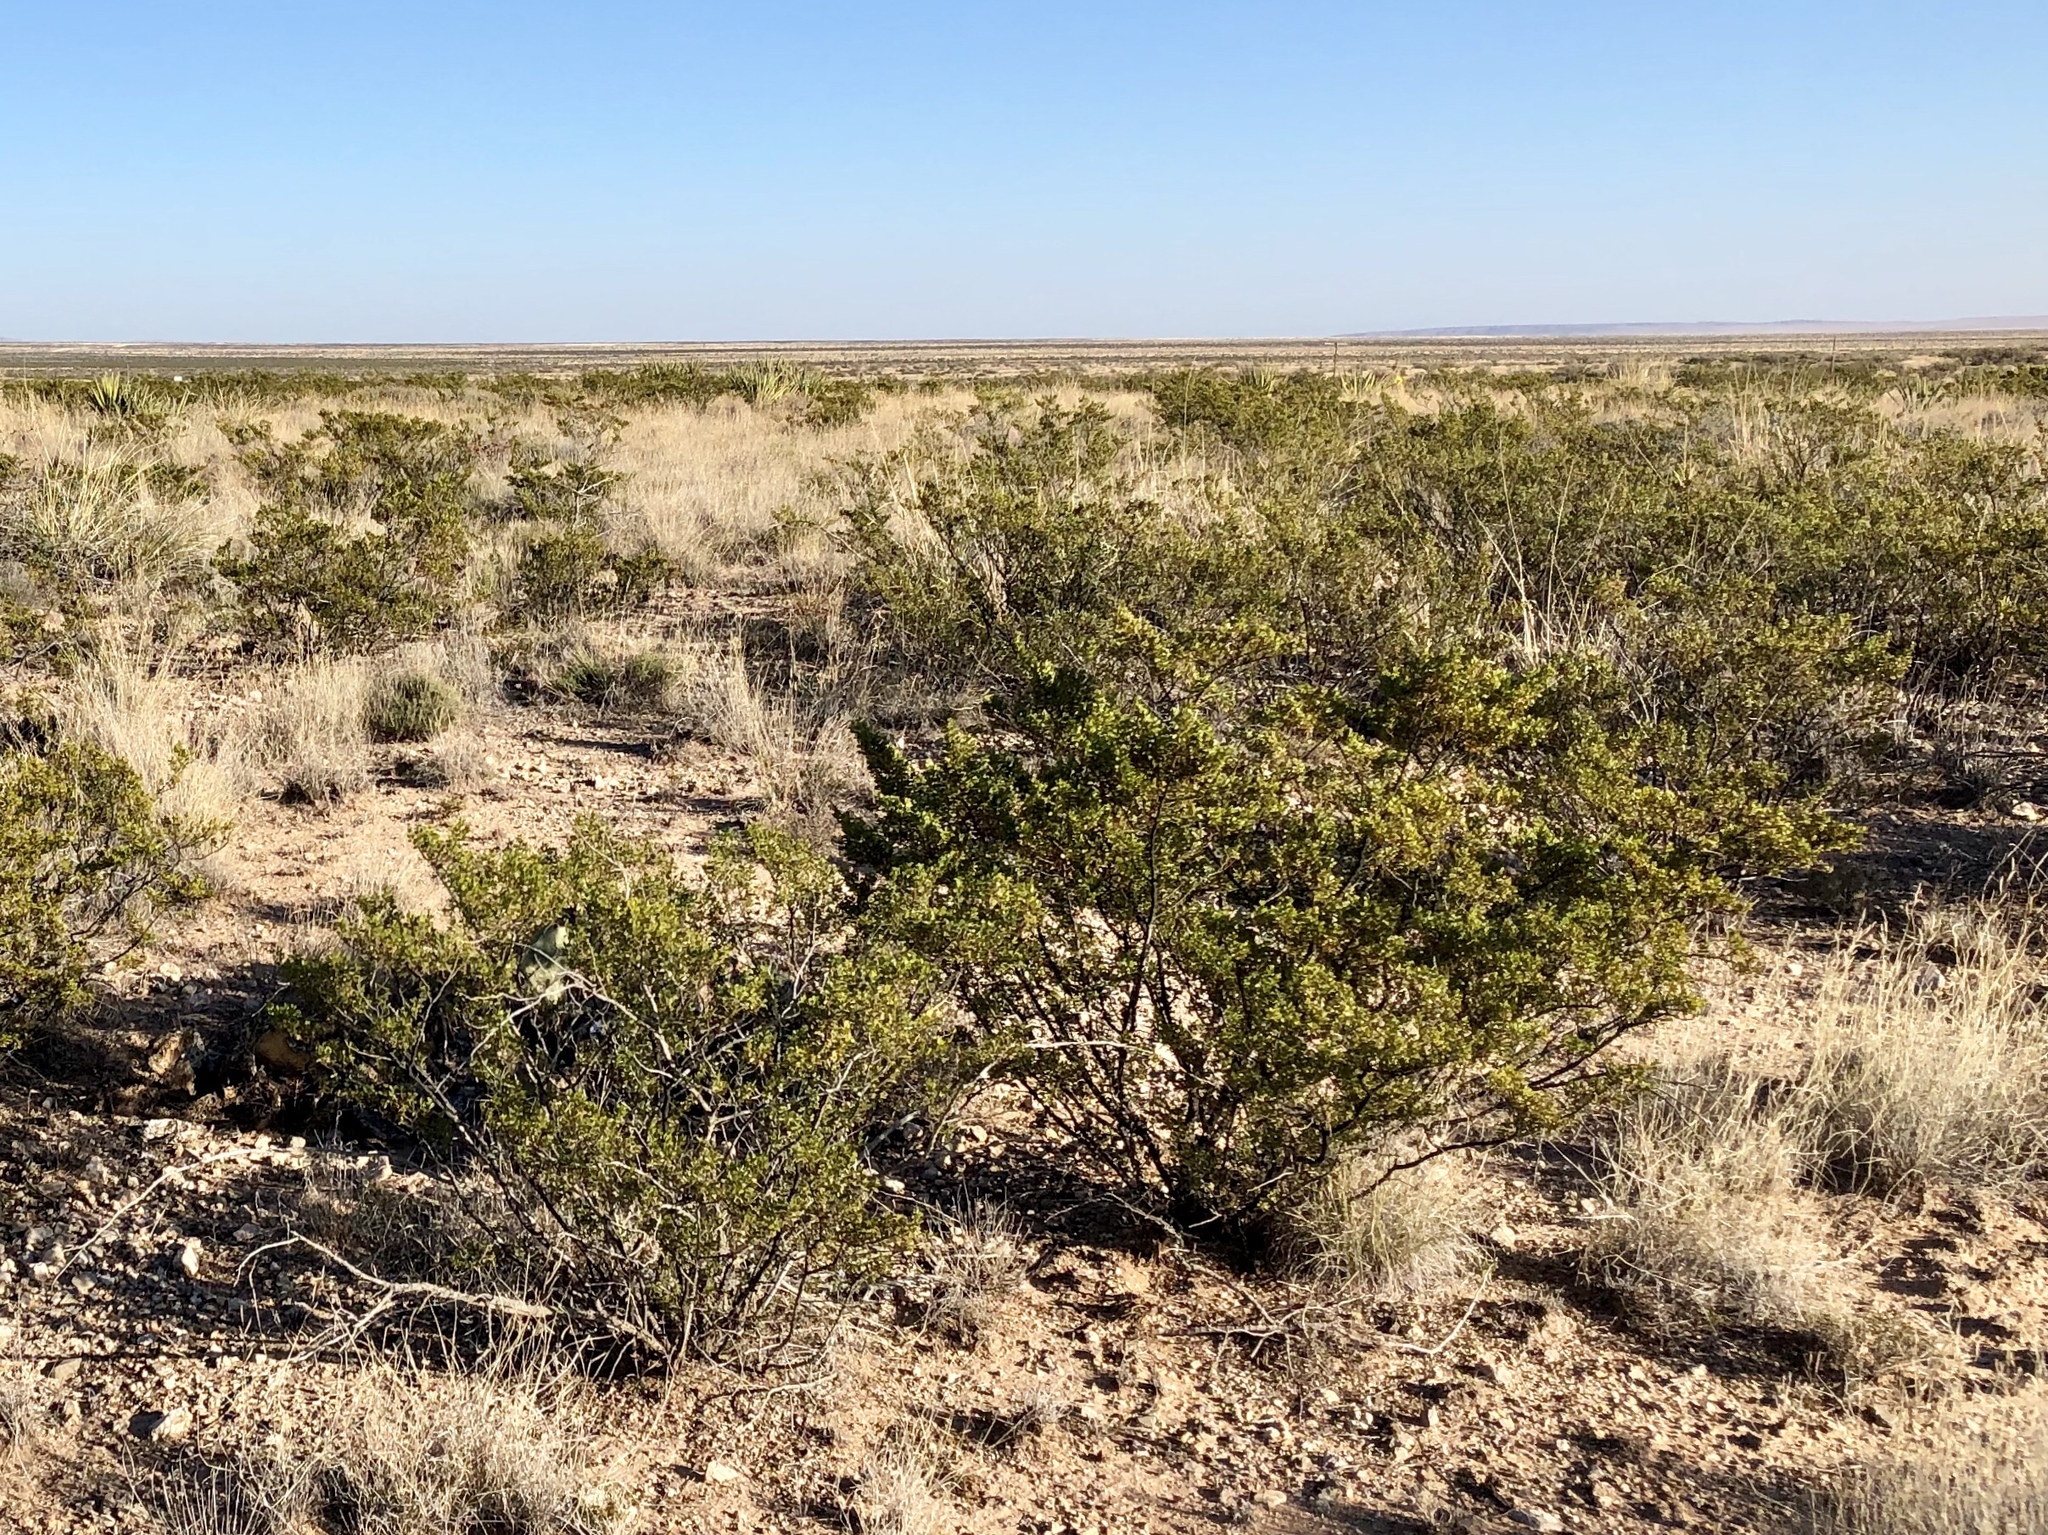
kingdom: Plantae
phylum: Tracheophyta
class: Magnoliopsida
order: Zygophyllales
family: Zygophyllaceae
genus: Larrea
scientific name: Larrea tridentata
